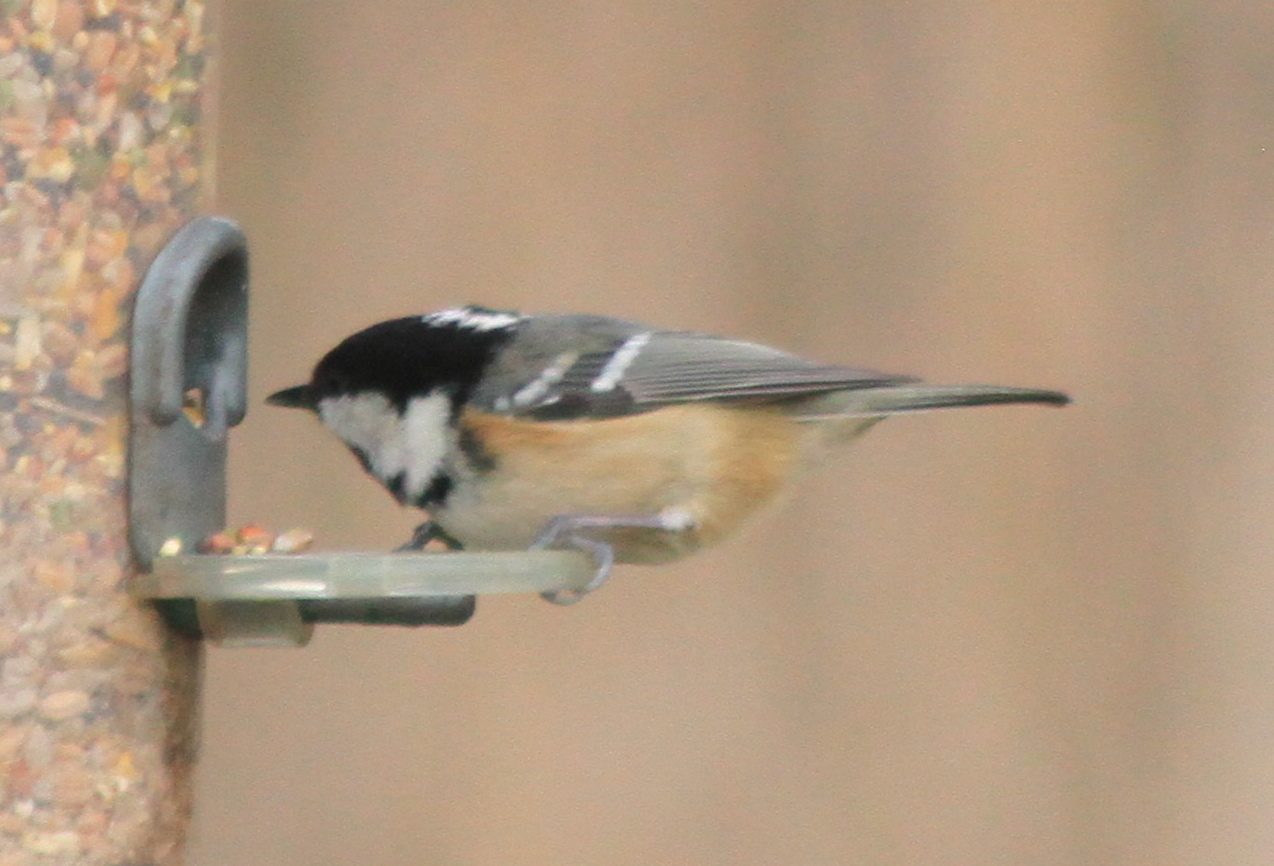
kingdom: Animalia
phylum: Chordata
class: Aves
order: Passeriformes
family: Paridae
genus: Periparus
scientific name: Periparus ater
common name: Coal tit
